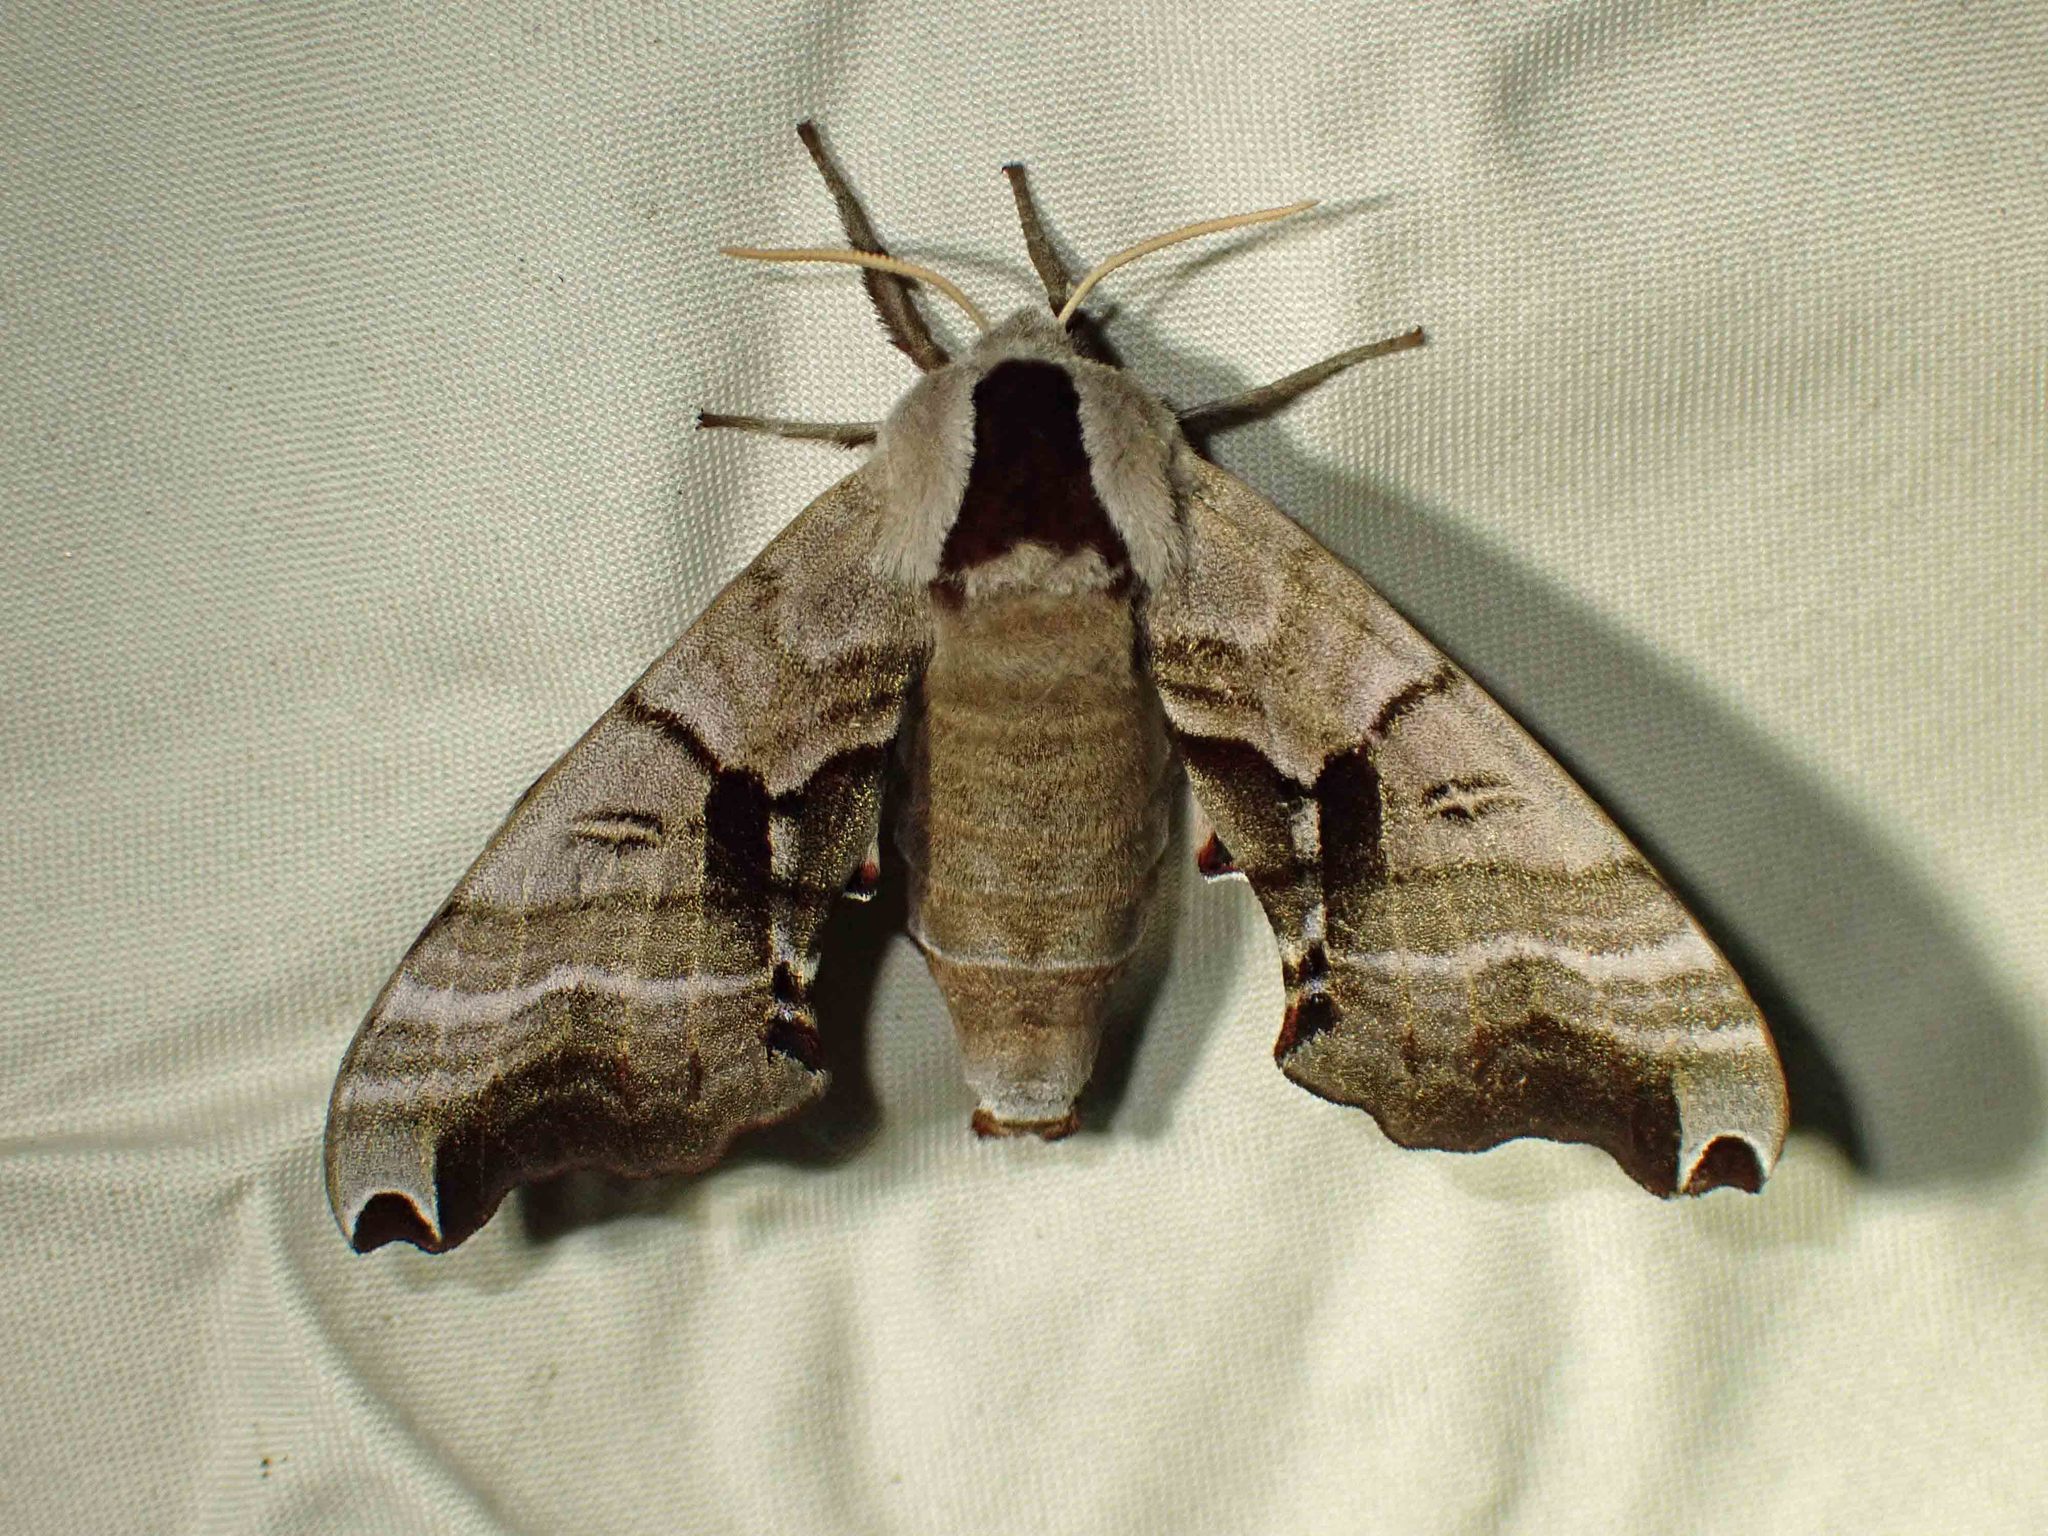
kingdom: Animalia
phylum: Arthropoda
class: Insecta
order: Lepidoptera
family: Sphingidae
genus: Smerinthus
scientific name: Smerinthus jamaicensis
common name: Twin spotted sphinx
